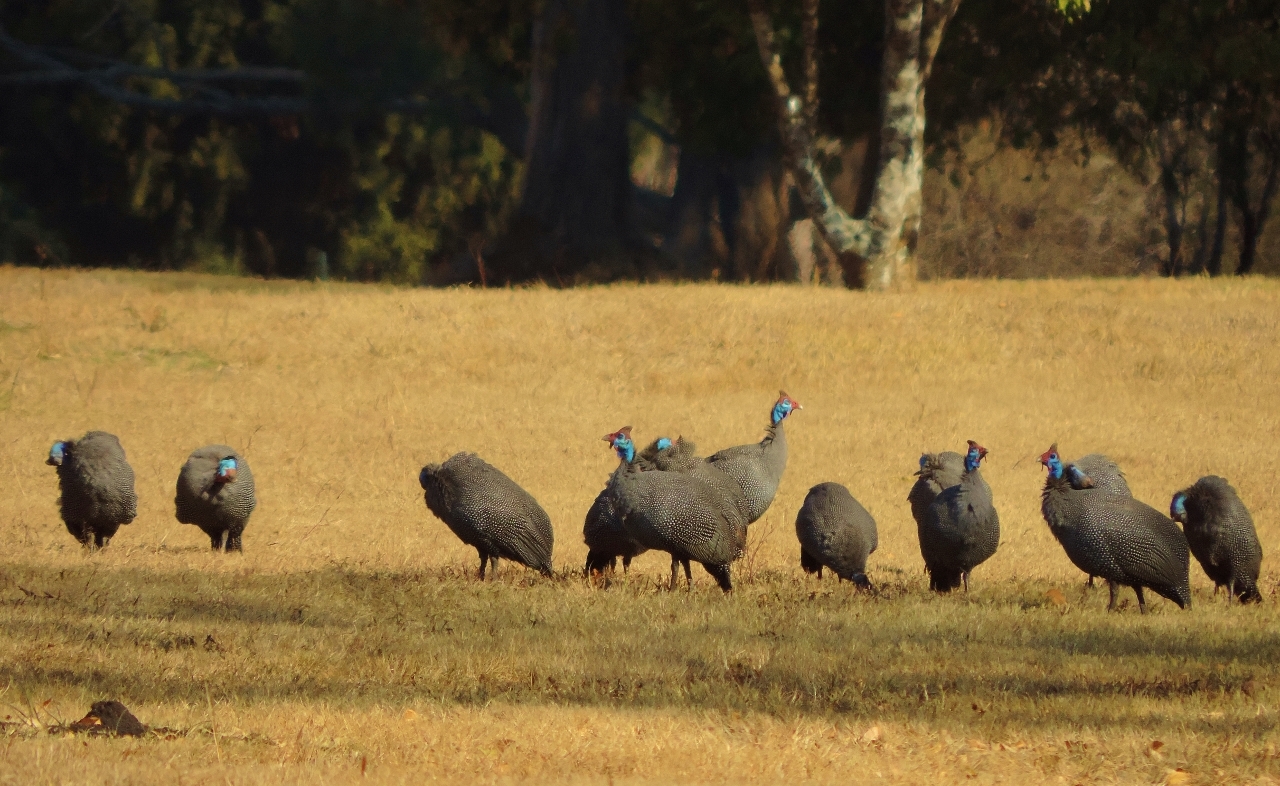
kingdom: Animalia
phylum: Chordata
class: Aves
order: Galliformes
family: Numididae
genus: Numida
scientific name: Numida meleagris
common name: Helmeted guineafowl
